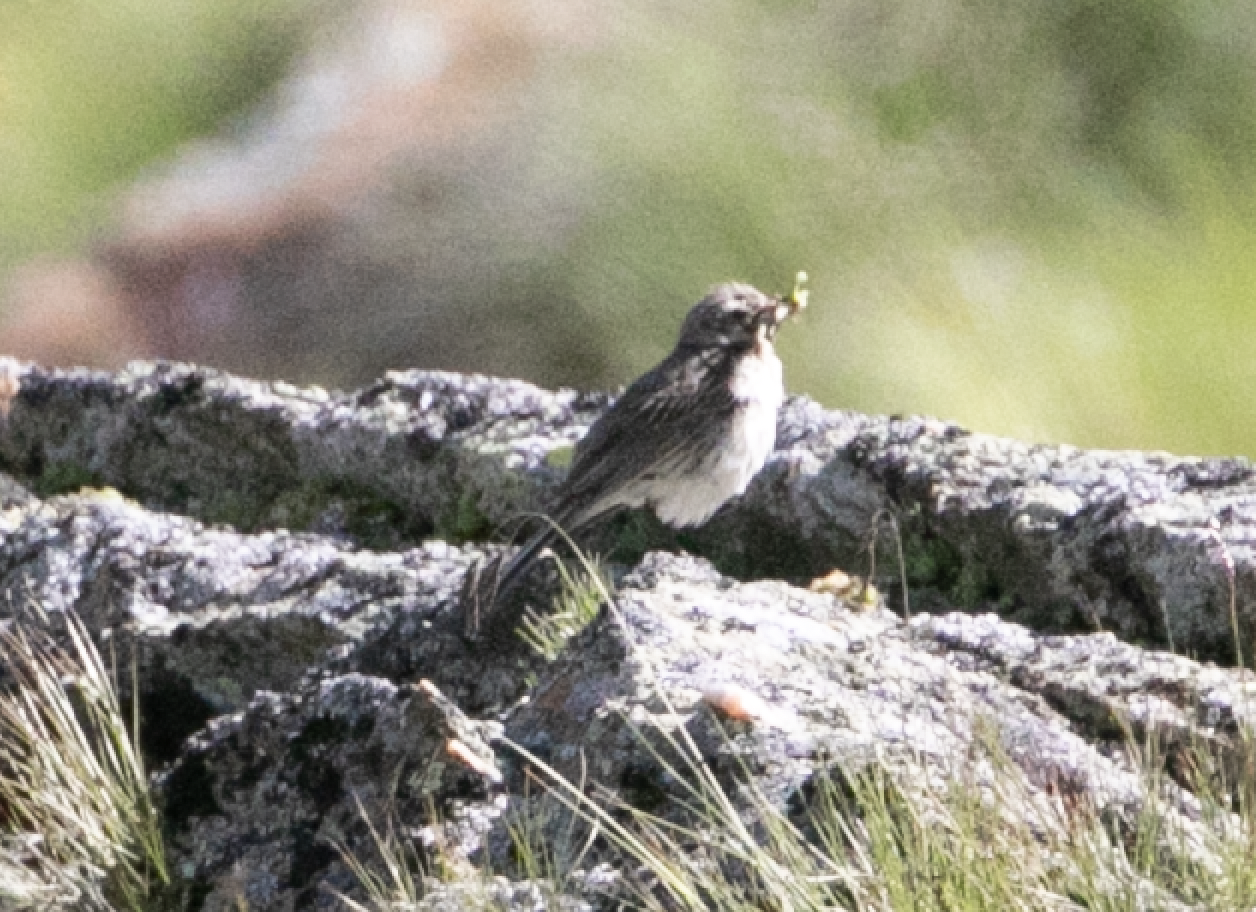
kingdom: Animalia
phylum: Chordata
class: Aves
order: Passeriformes
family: Motacillidae
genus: Anthus
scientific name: Anthus spinoletta
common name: Water pipit
